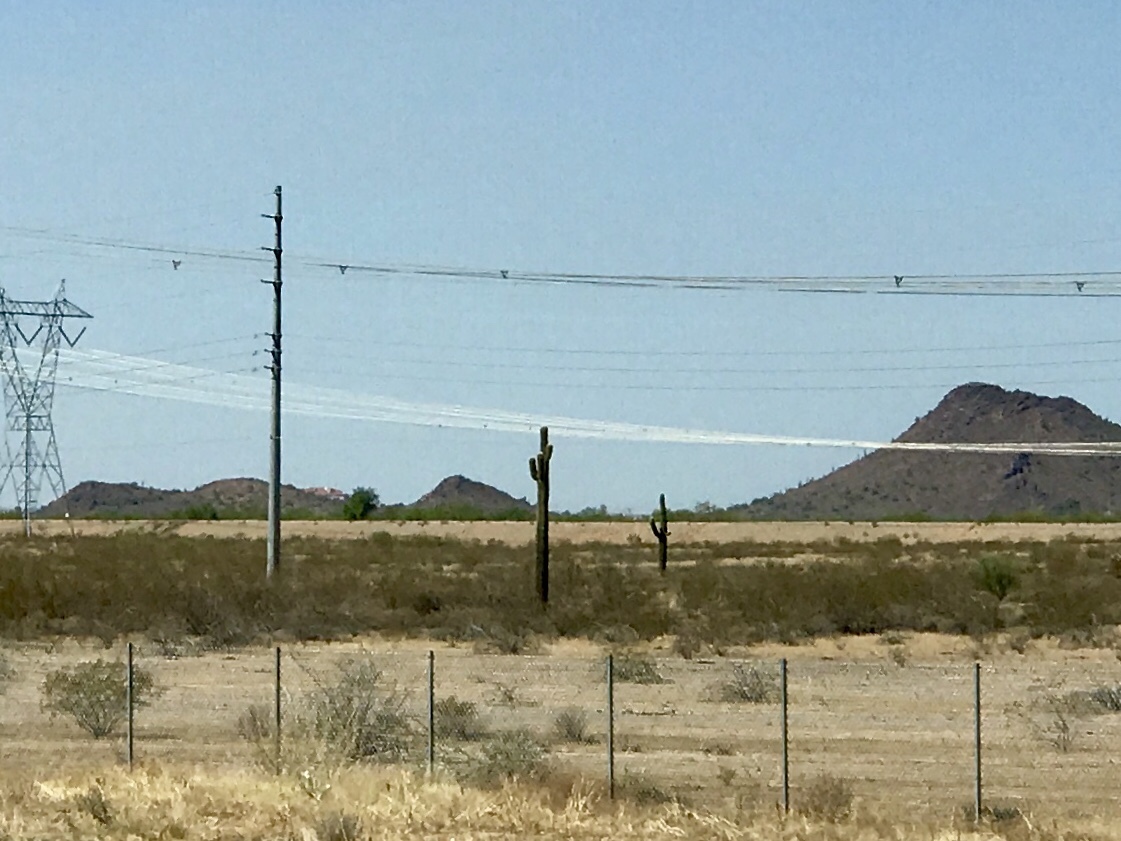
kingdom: Plantae
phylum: Tracheophyta
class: Magnoliopsida
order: Caryophyllales
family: Cactaceae
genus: Carnegiea
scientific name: Carnegiea gigantea
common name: Saguaro
